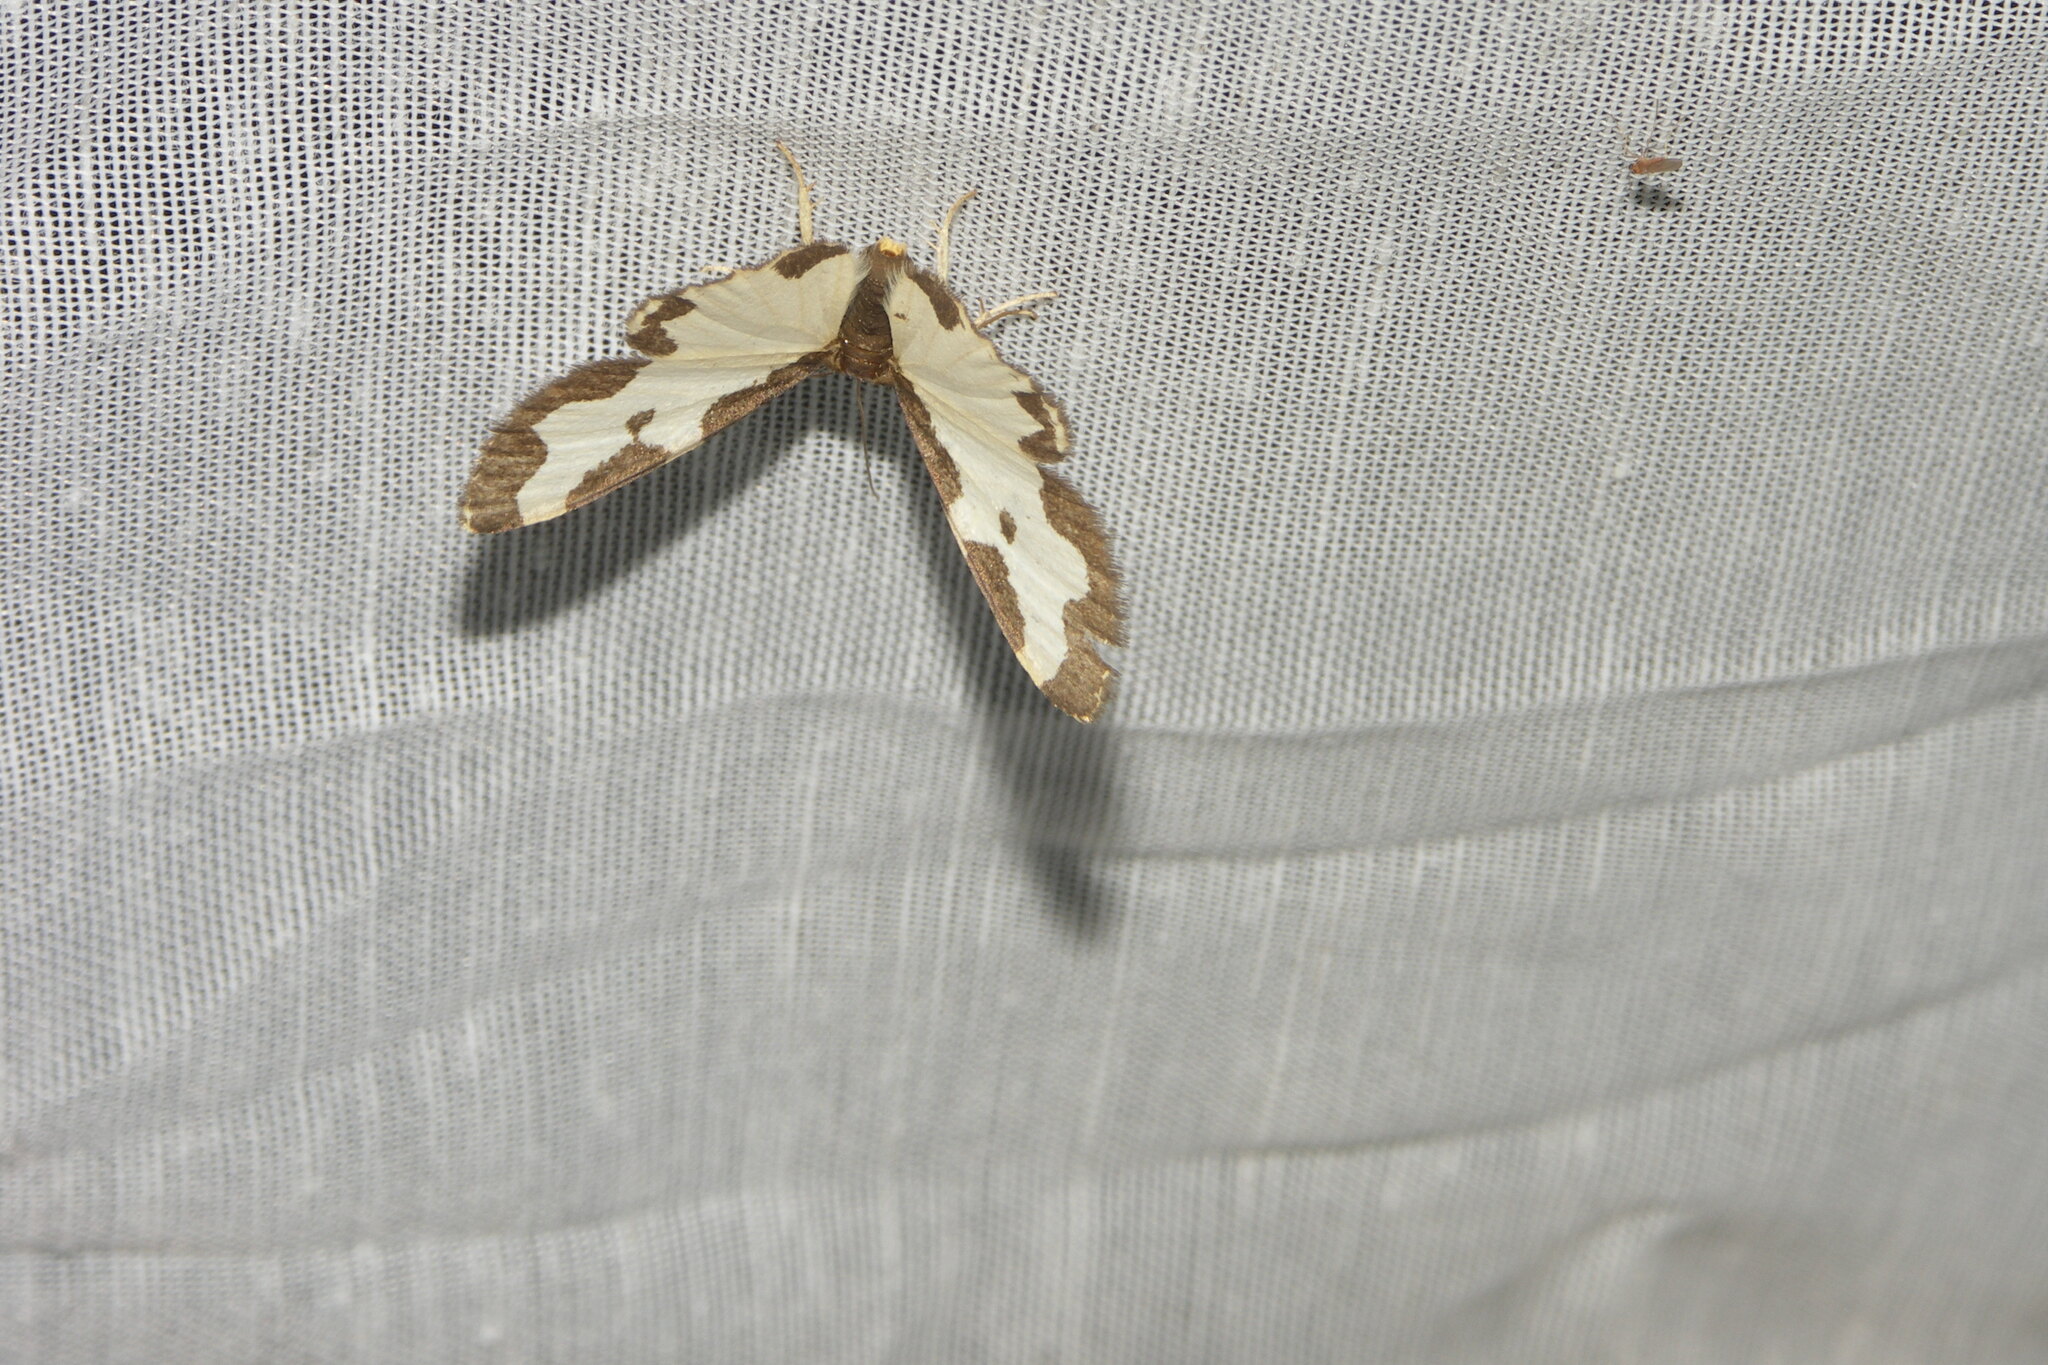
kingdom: Animalia
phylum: Arthropoda
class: Insecta
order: Lepidoptera
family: Geometridae
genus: Lomaspilis
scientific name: Lomaspilis marginata
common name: Clouded border
